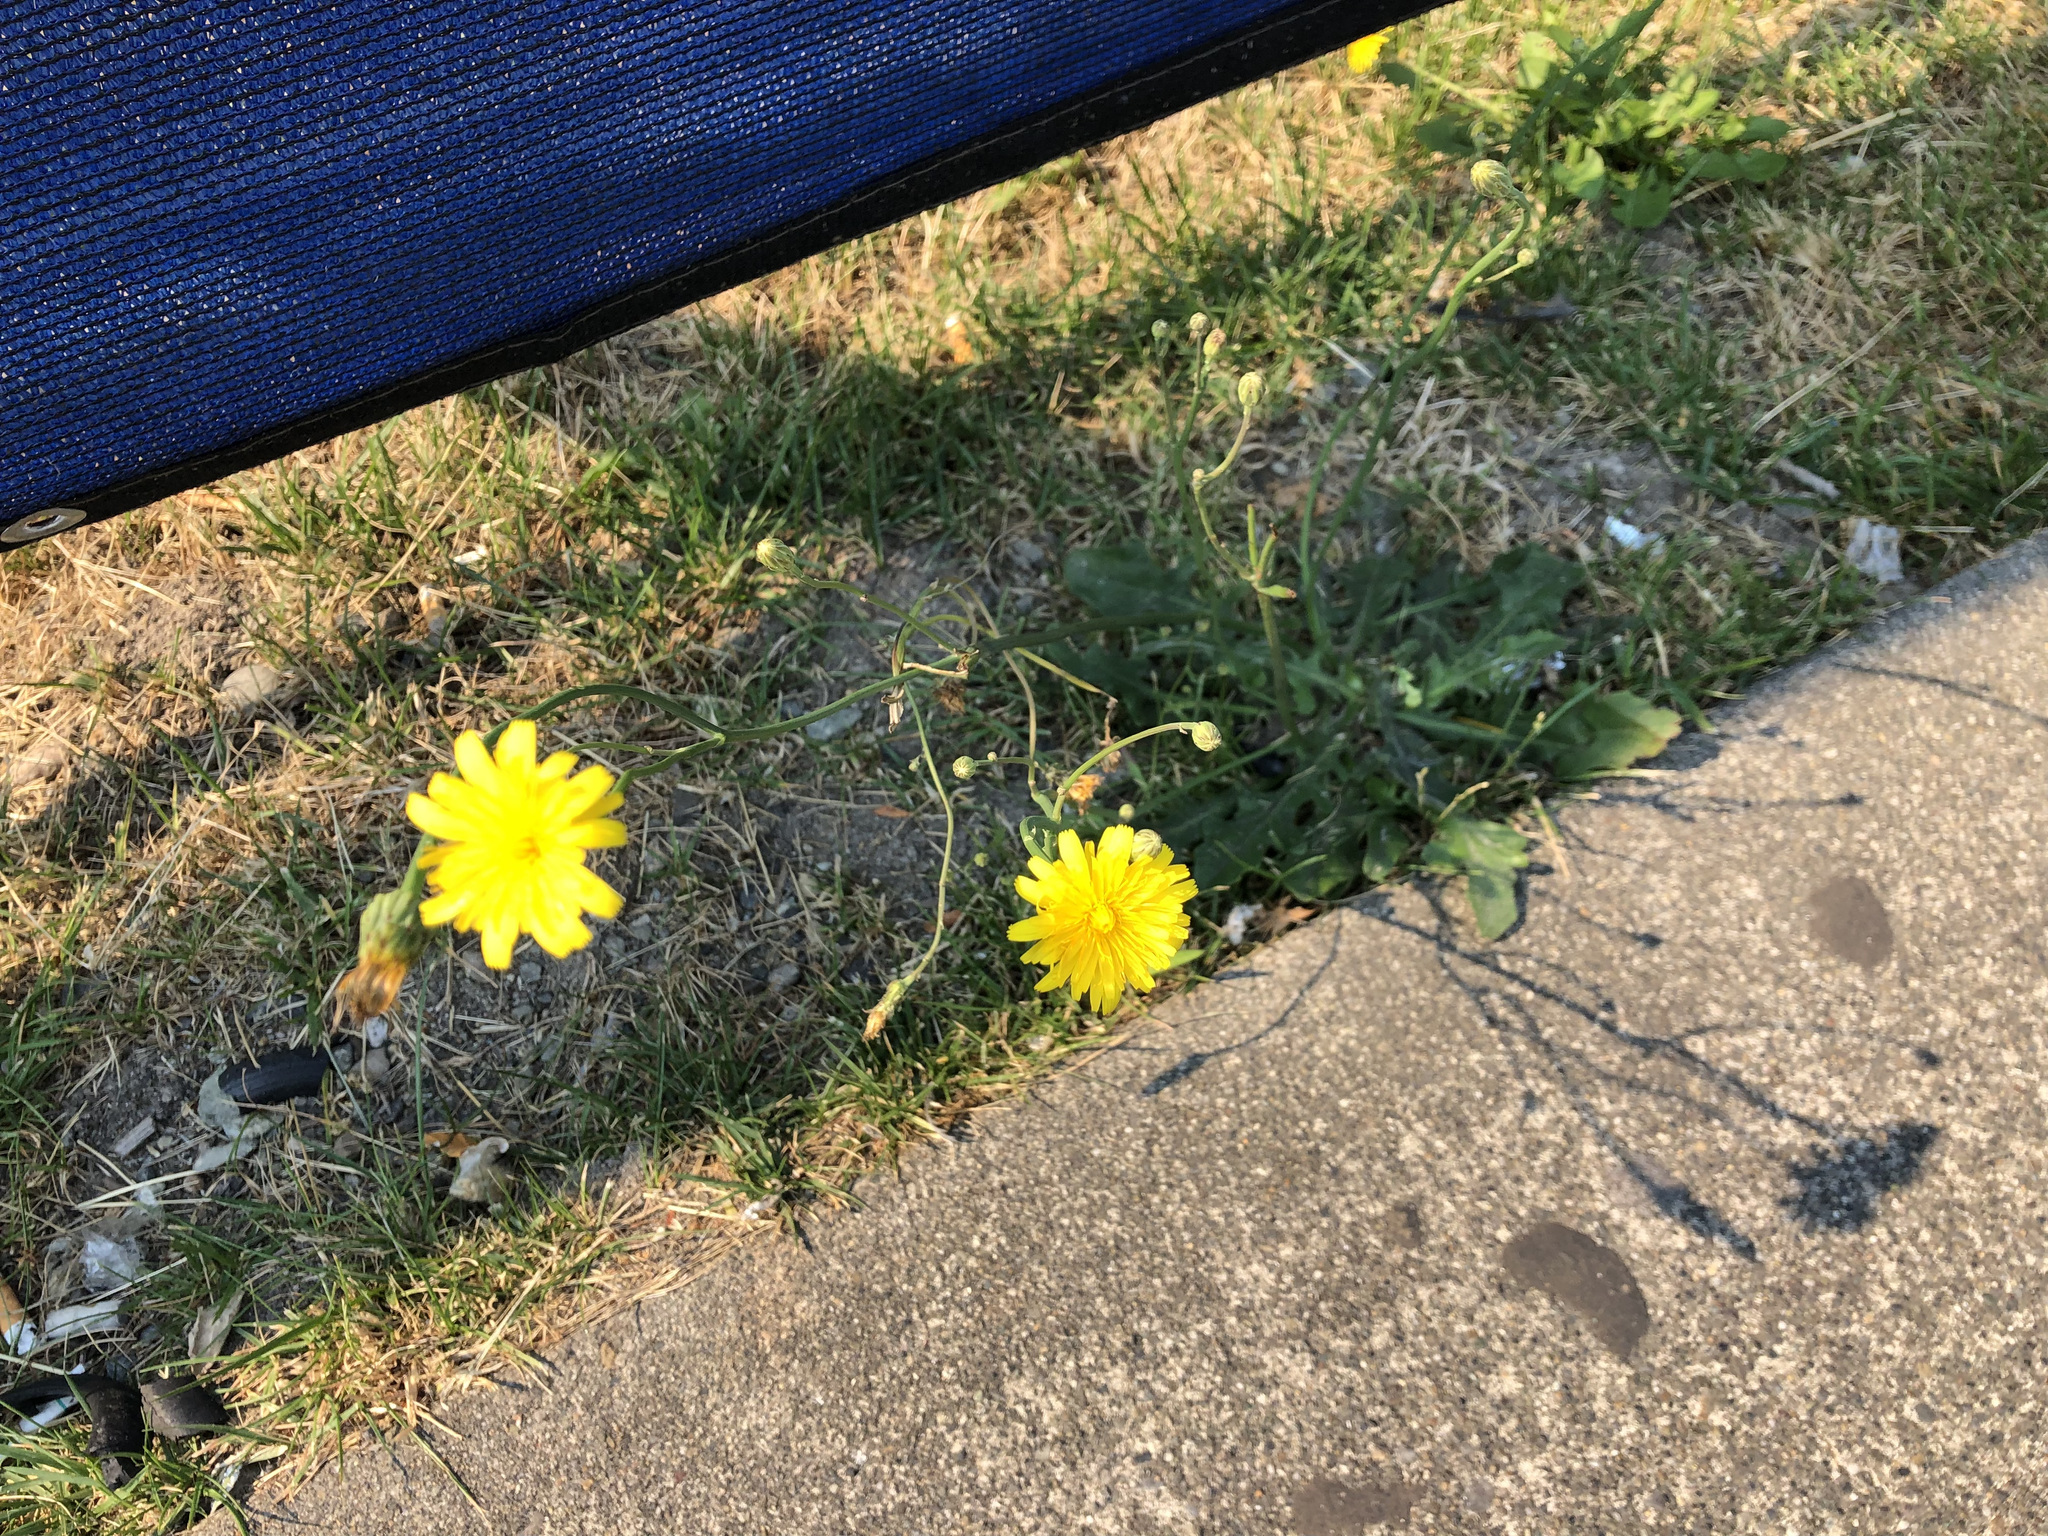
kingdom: Plantae
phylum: Tracheophyta
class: Magnoliopsida
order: Asterales
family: Asteraceae
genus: Hypochaeris
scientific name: Hypochaeris radicata
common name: Flatweed
